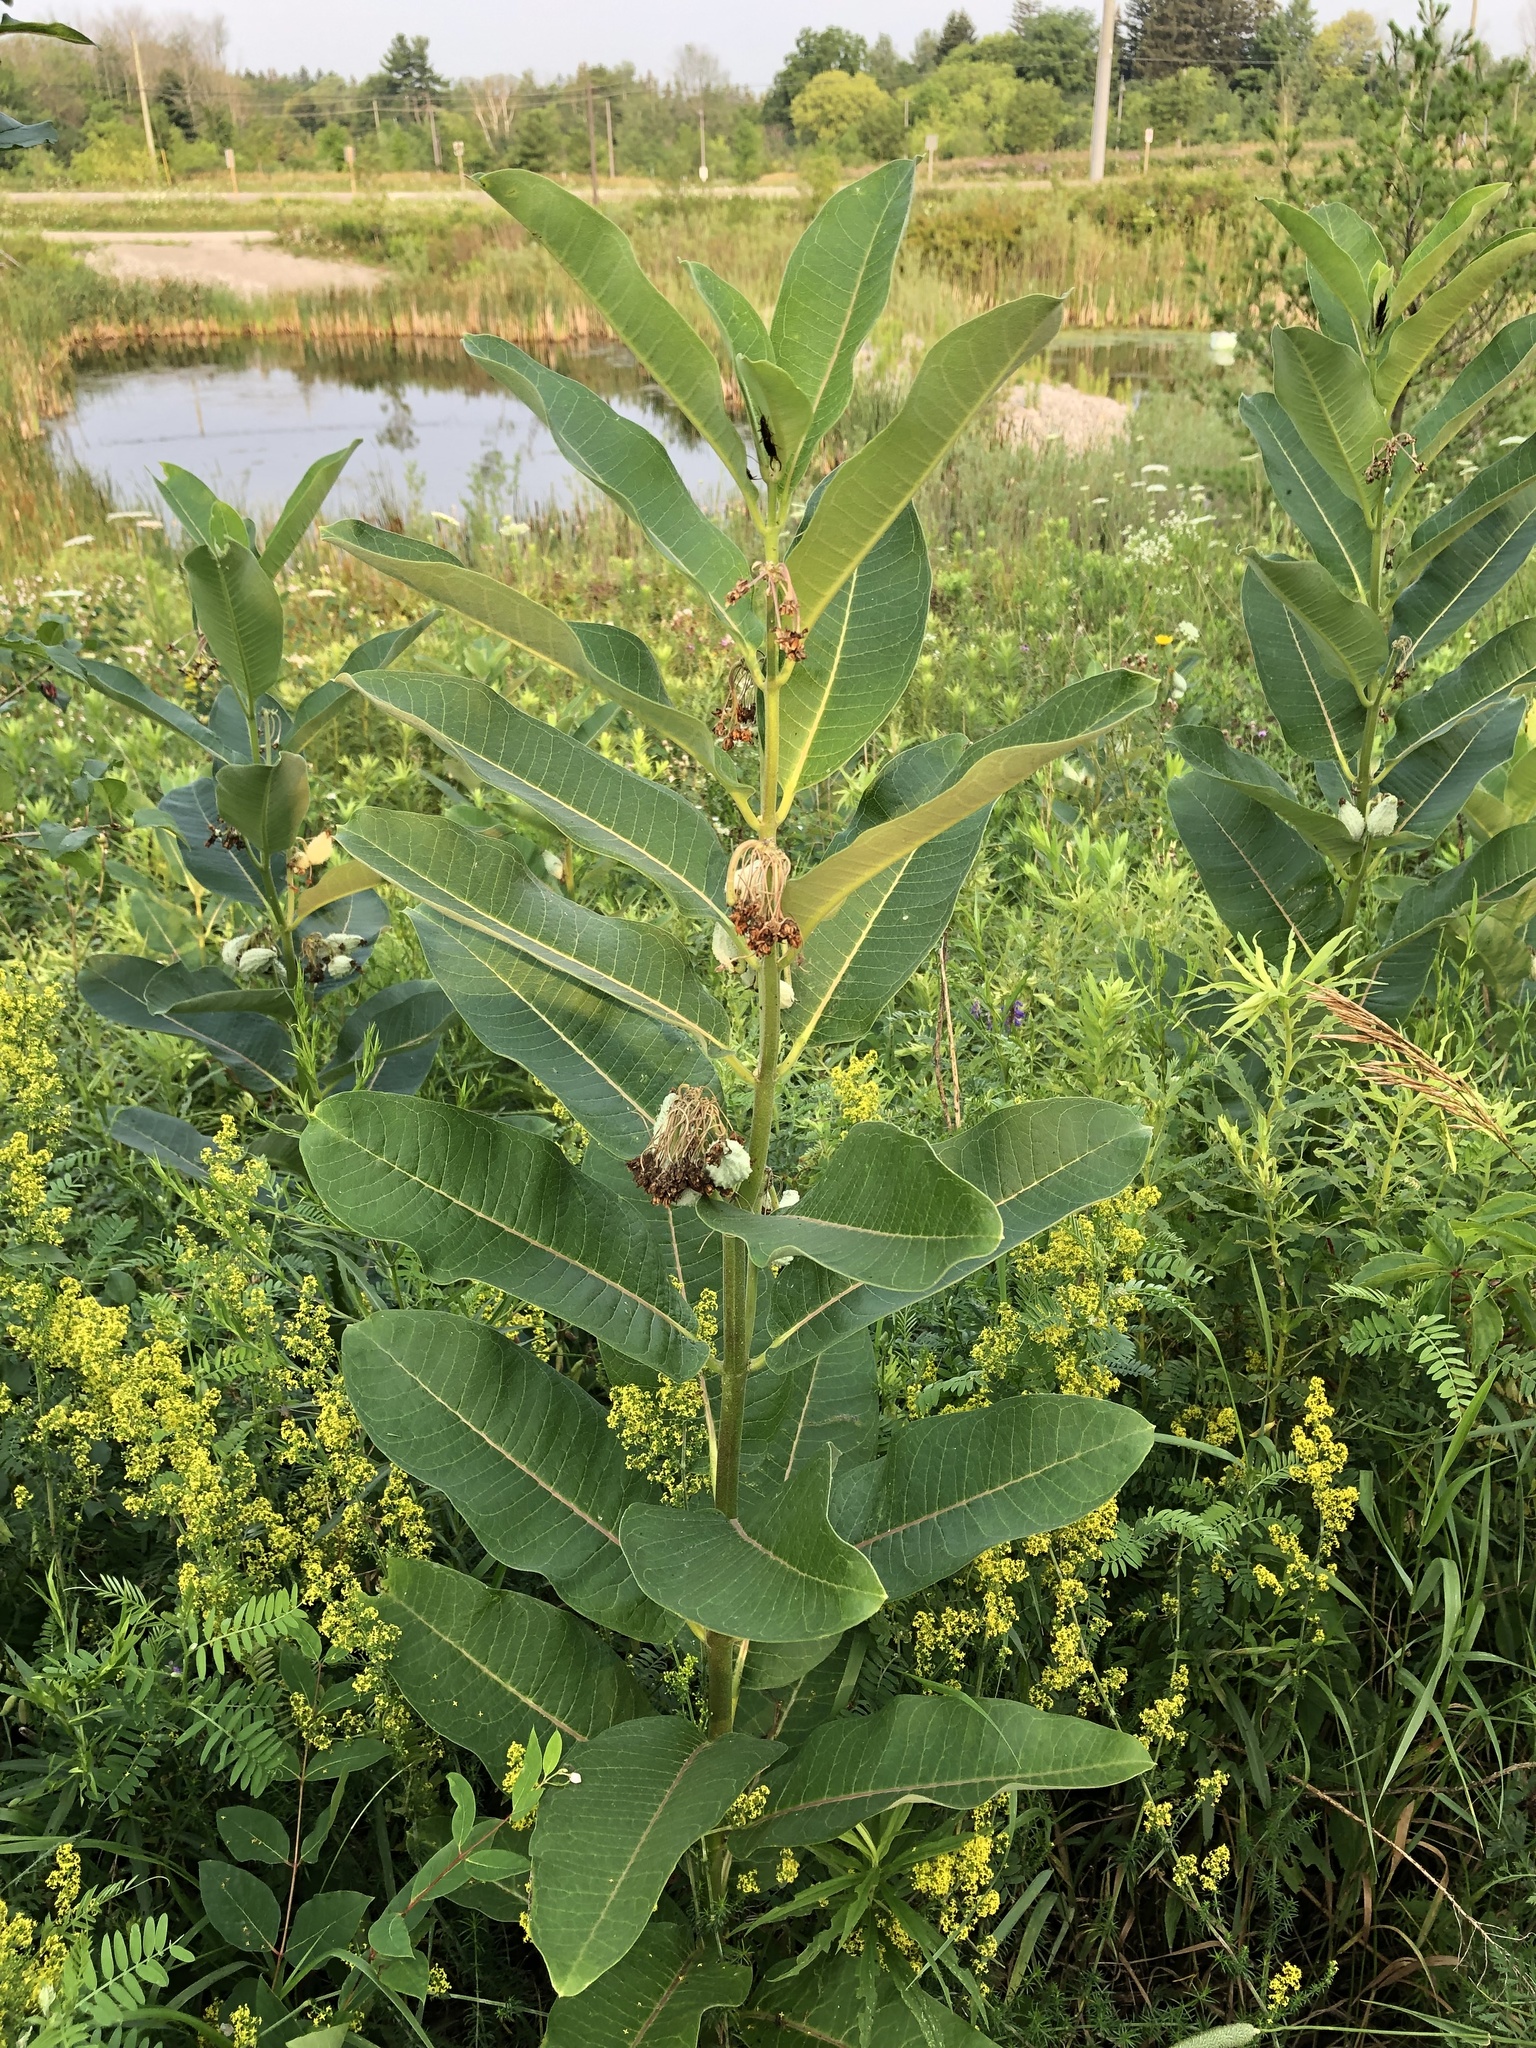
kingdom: Plantae
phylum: Tracheophyta
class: Magnoliopsida
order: Gentianales
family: Apocynaceae
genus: Asclepias
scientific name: Asclepias syriaca
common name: Common milkweed
